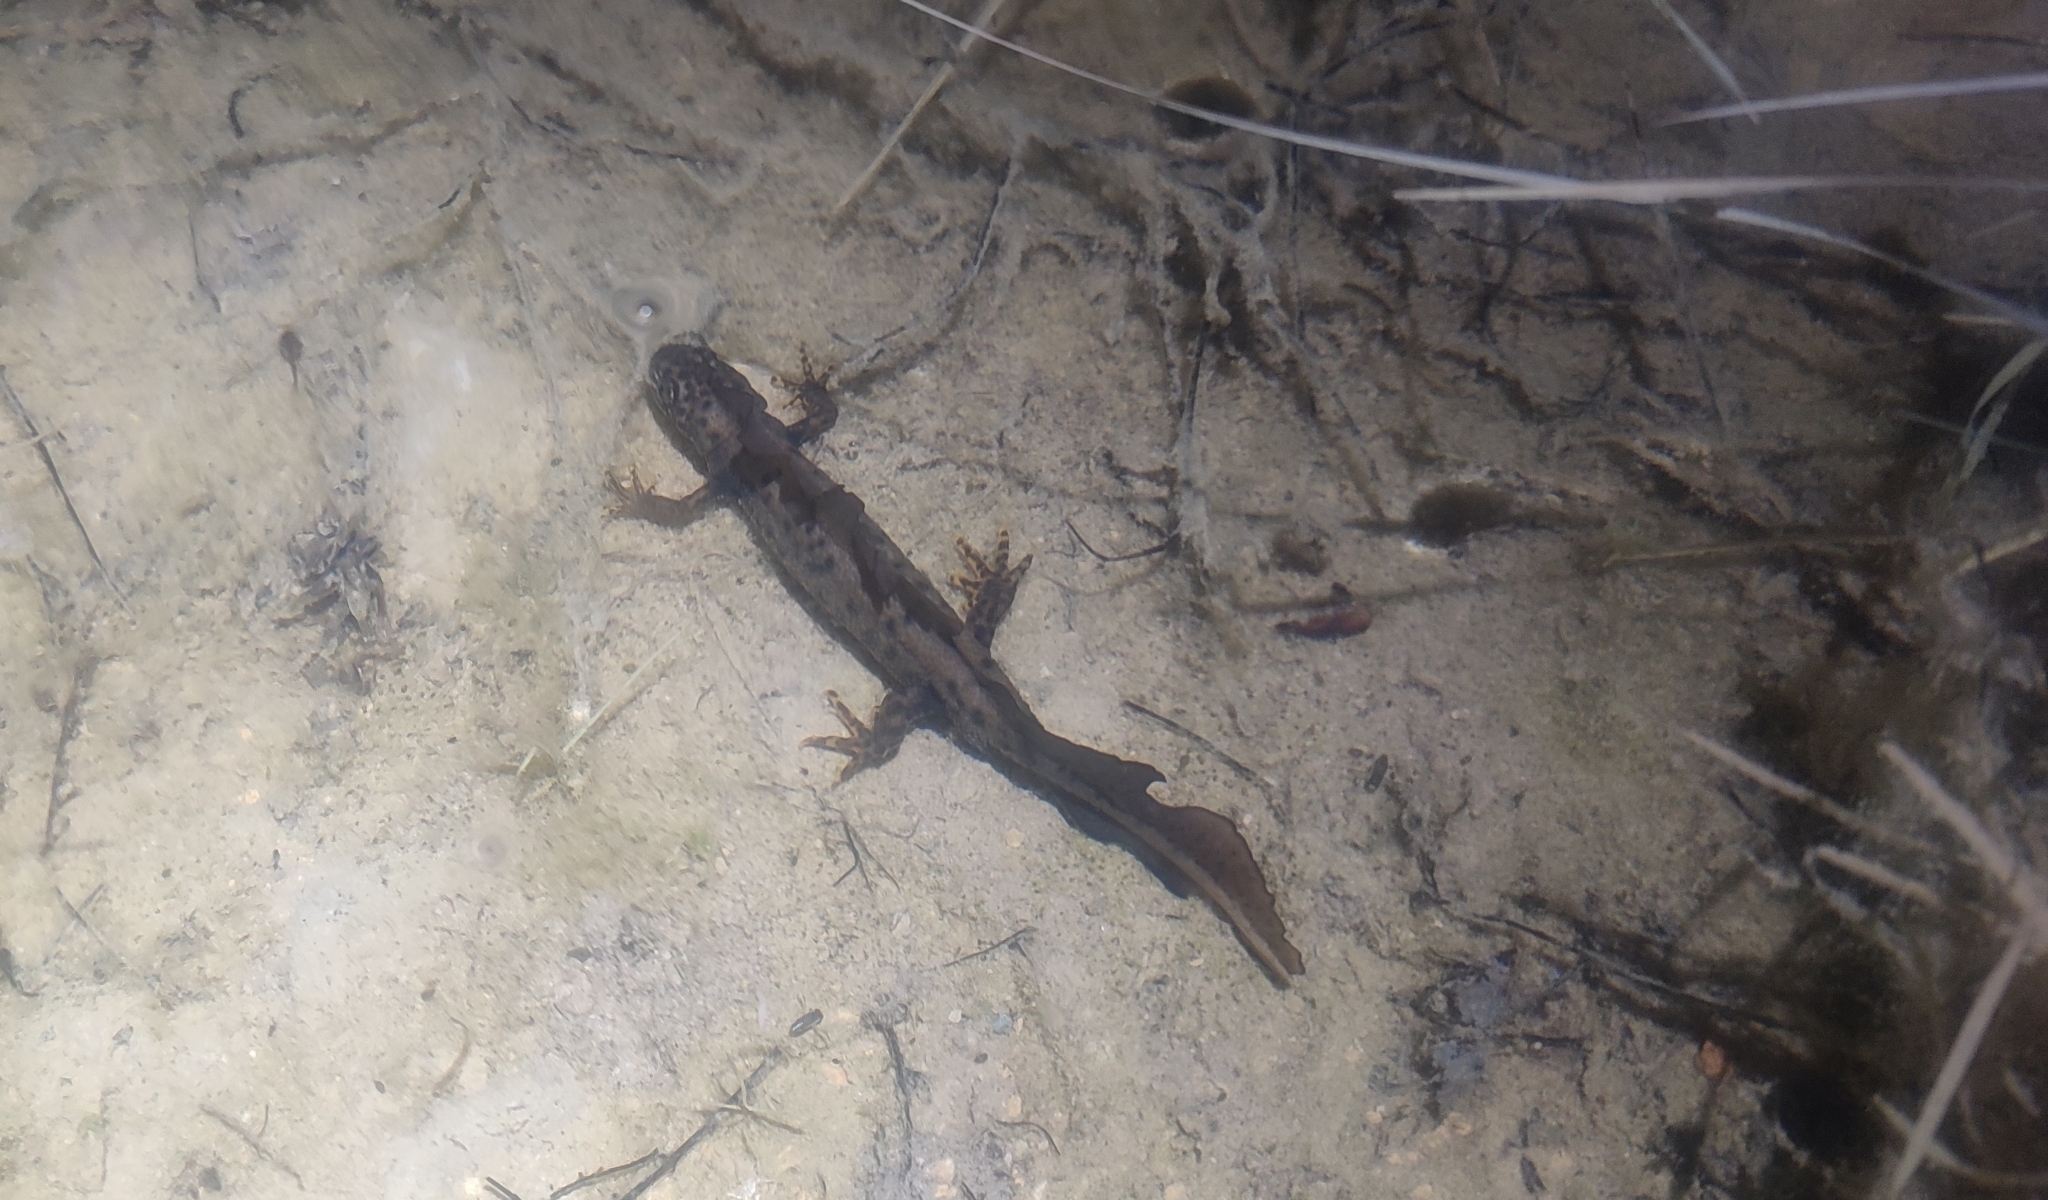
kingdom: Animalia
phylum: Chordata
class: Amphibia
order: Caudata
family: Salamandridae
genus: Triturus
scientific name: Triturus cristatus
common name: Crested newt
